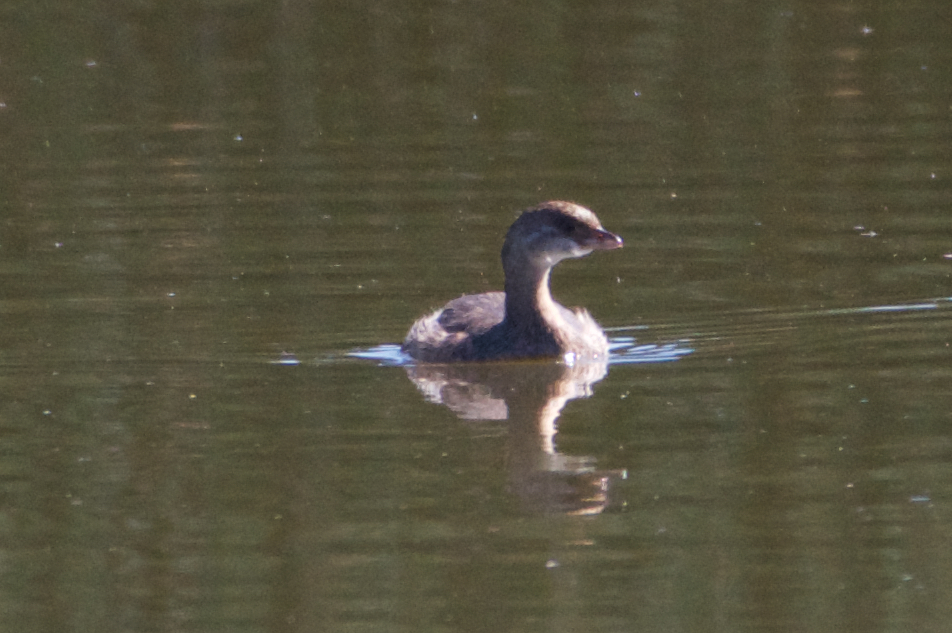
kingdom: Animalia
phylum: Chordata
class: Aves
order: Podicipediformes
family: Podicipedidae
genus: Podilymbus
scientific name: Podilymbus podiceps
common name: Pied-billed grebe
